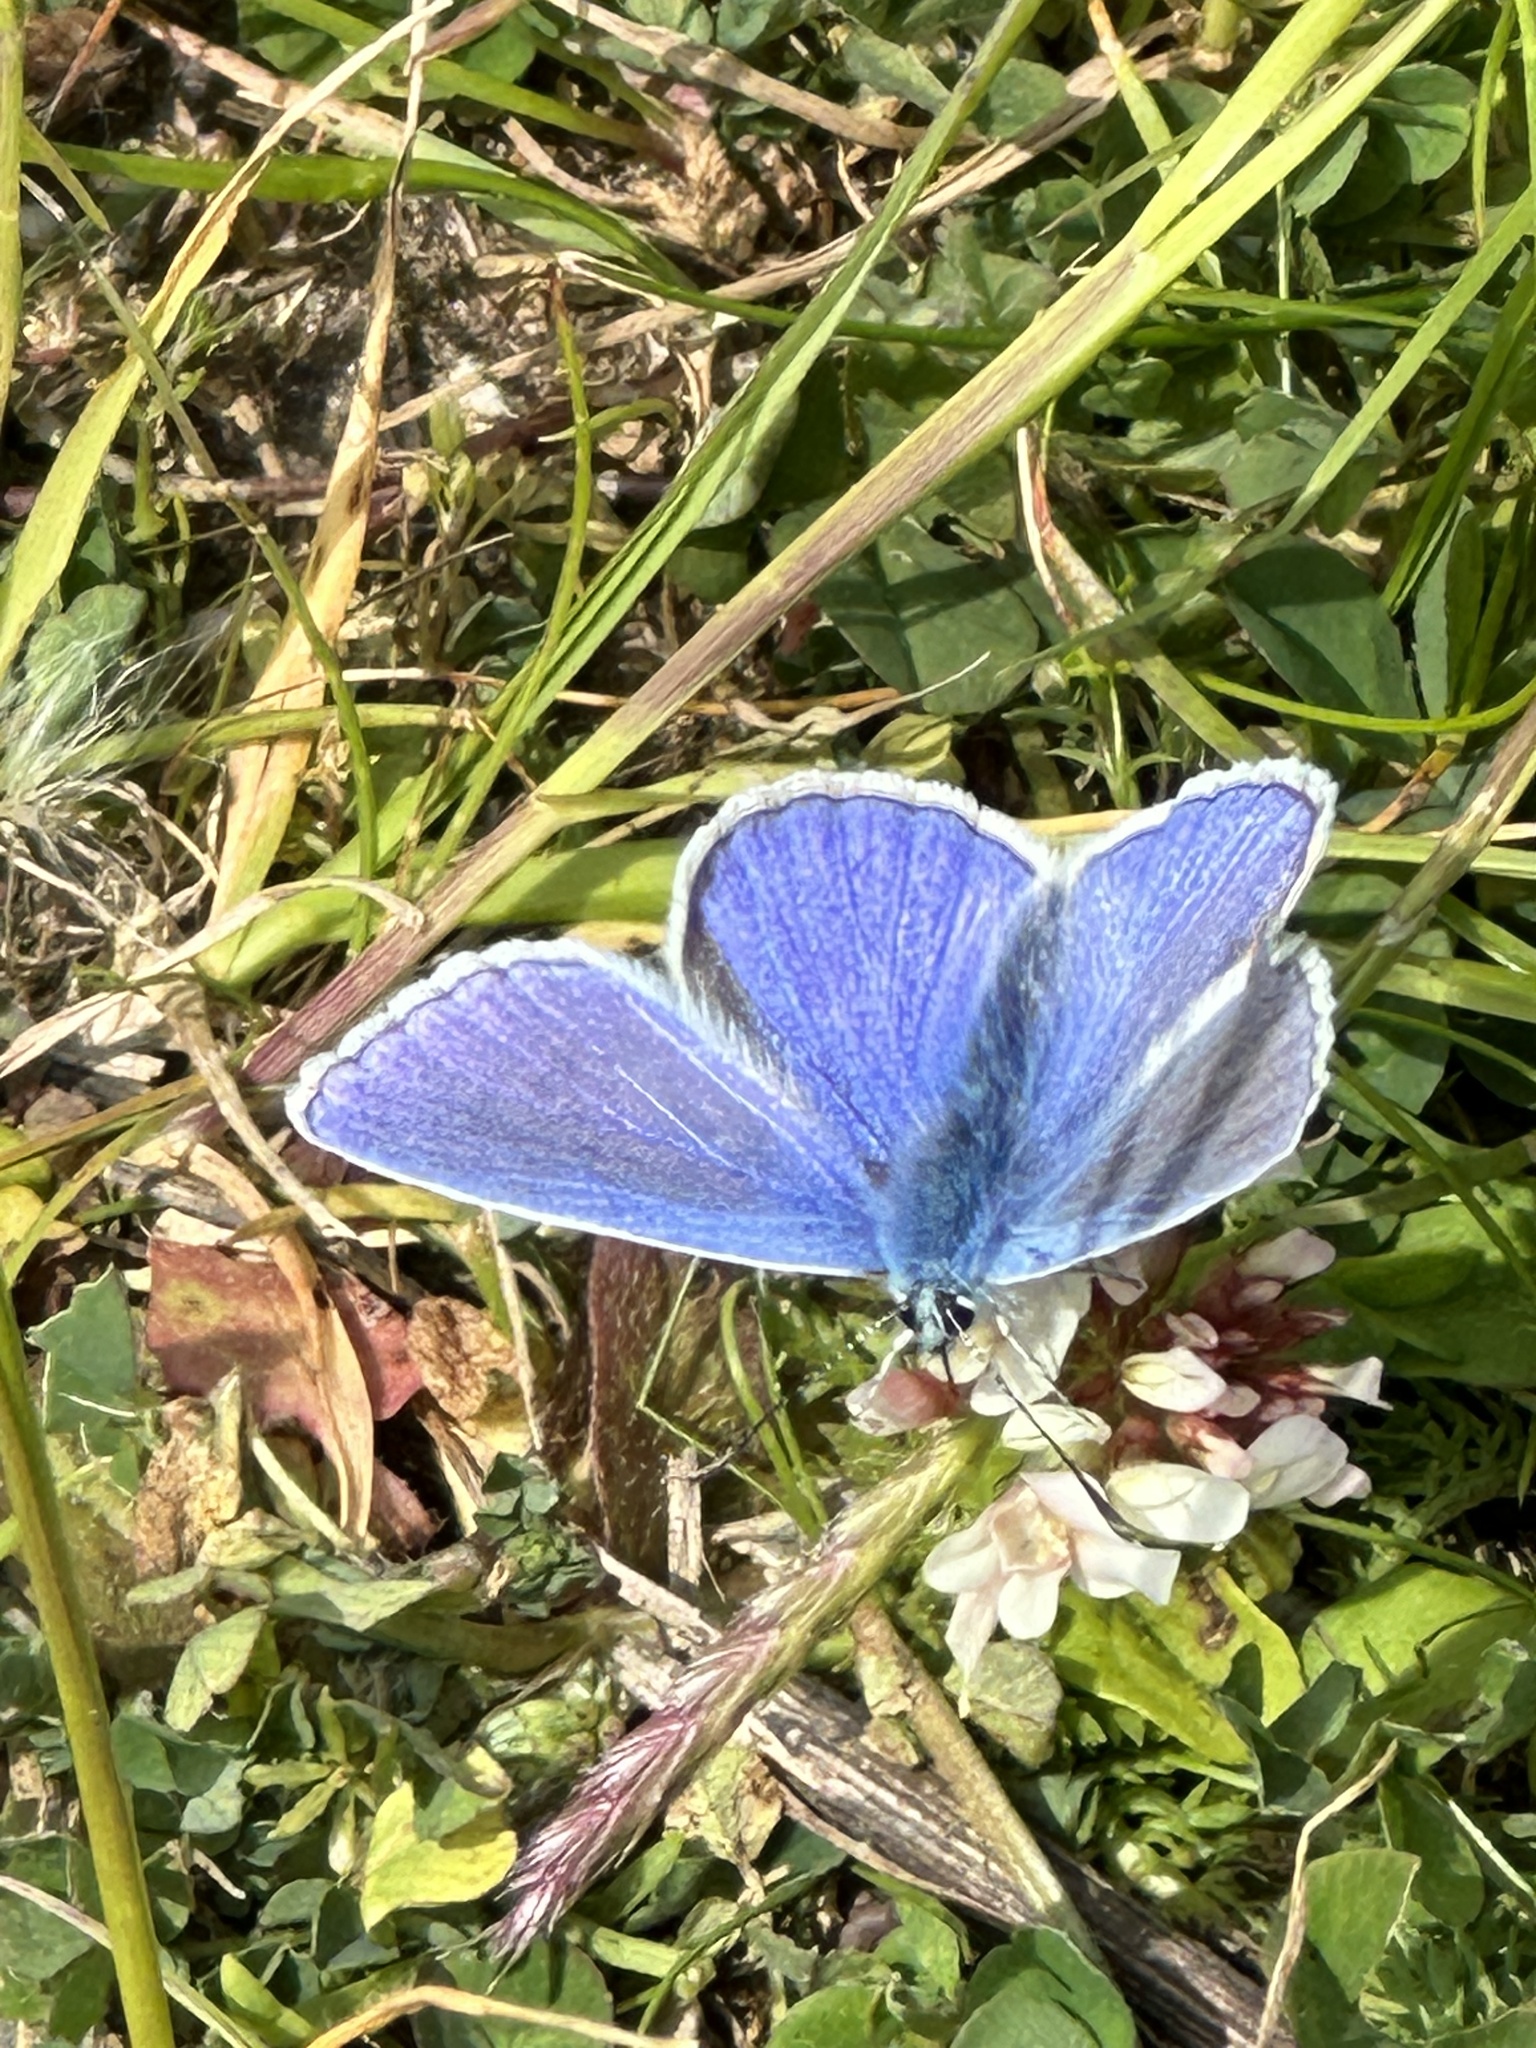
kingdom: Animalia
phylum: Arthropoda
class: Insecta
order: Lepidoptera
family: Lycaenidae
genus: Polyommatus
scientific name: Polyommatus icarus
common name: Common blue
